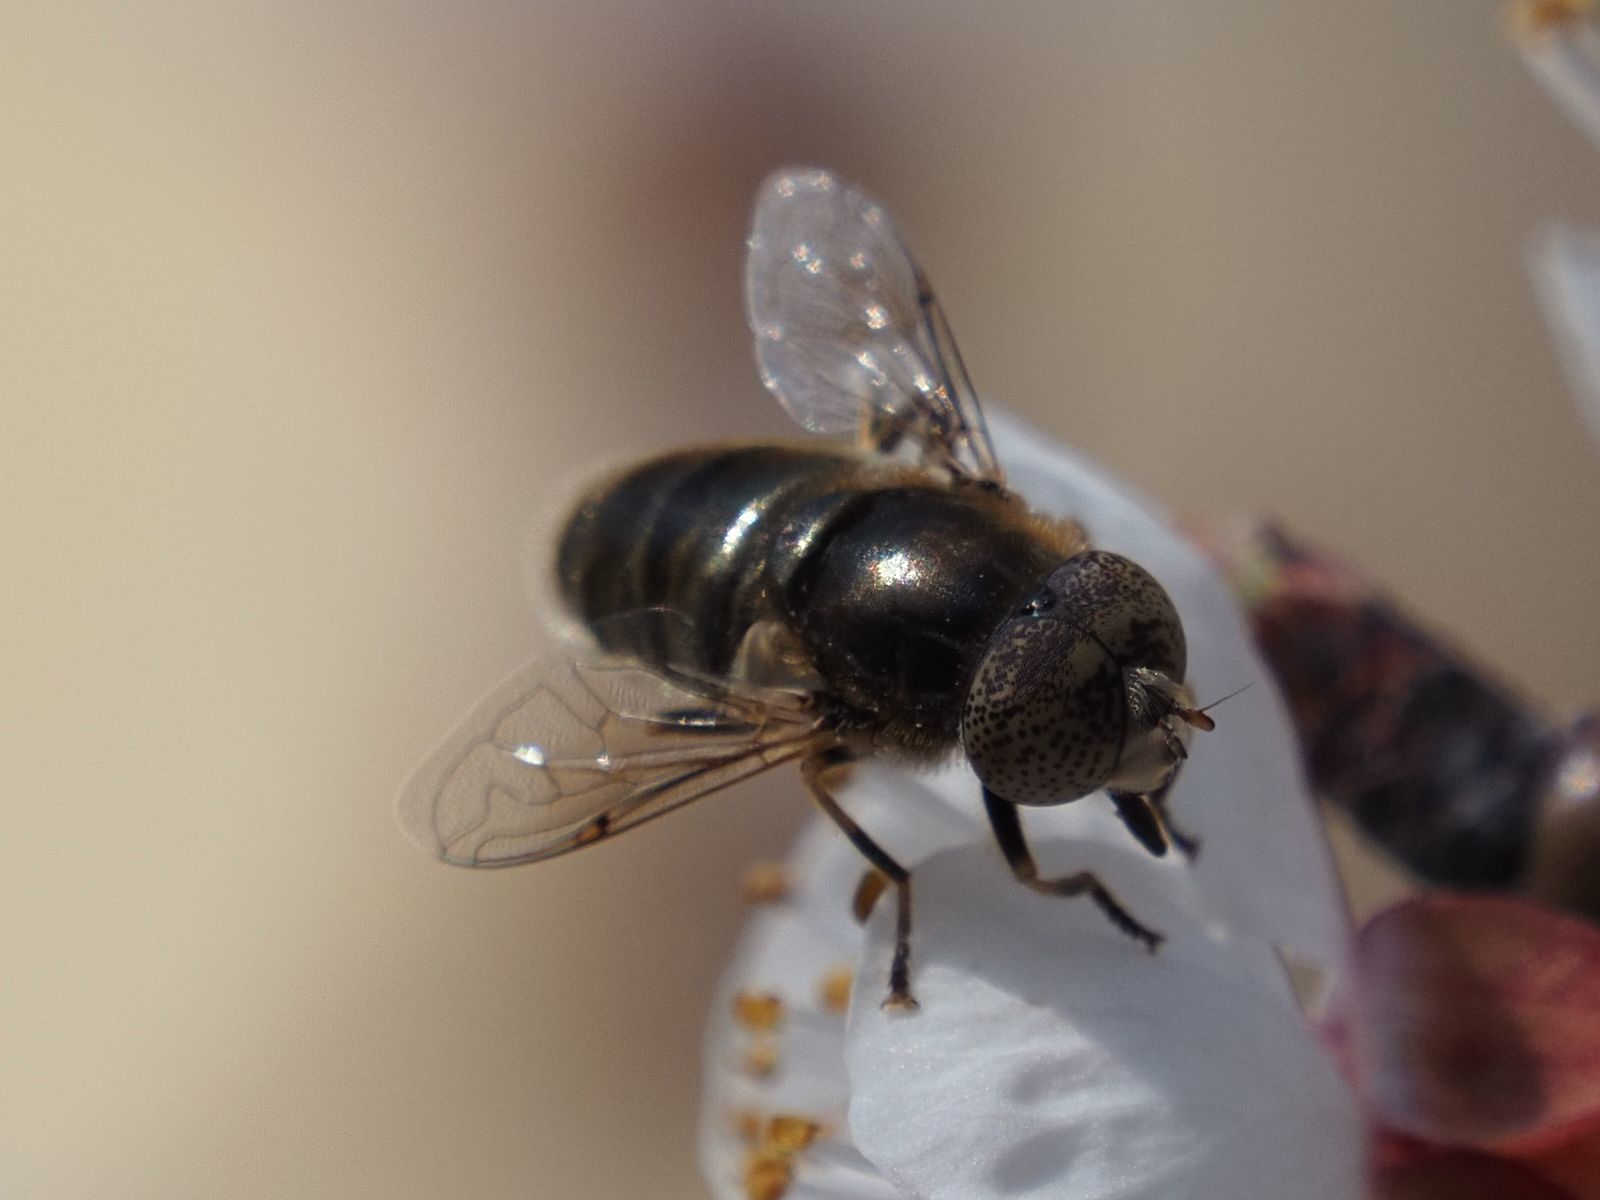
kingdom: Animalia
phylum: Arthropoda
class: Insecta
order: Diptera
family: Syrphidae
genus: Eristalinus
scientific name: Eristalinus aeneus
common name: Syrphid fly
